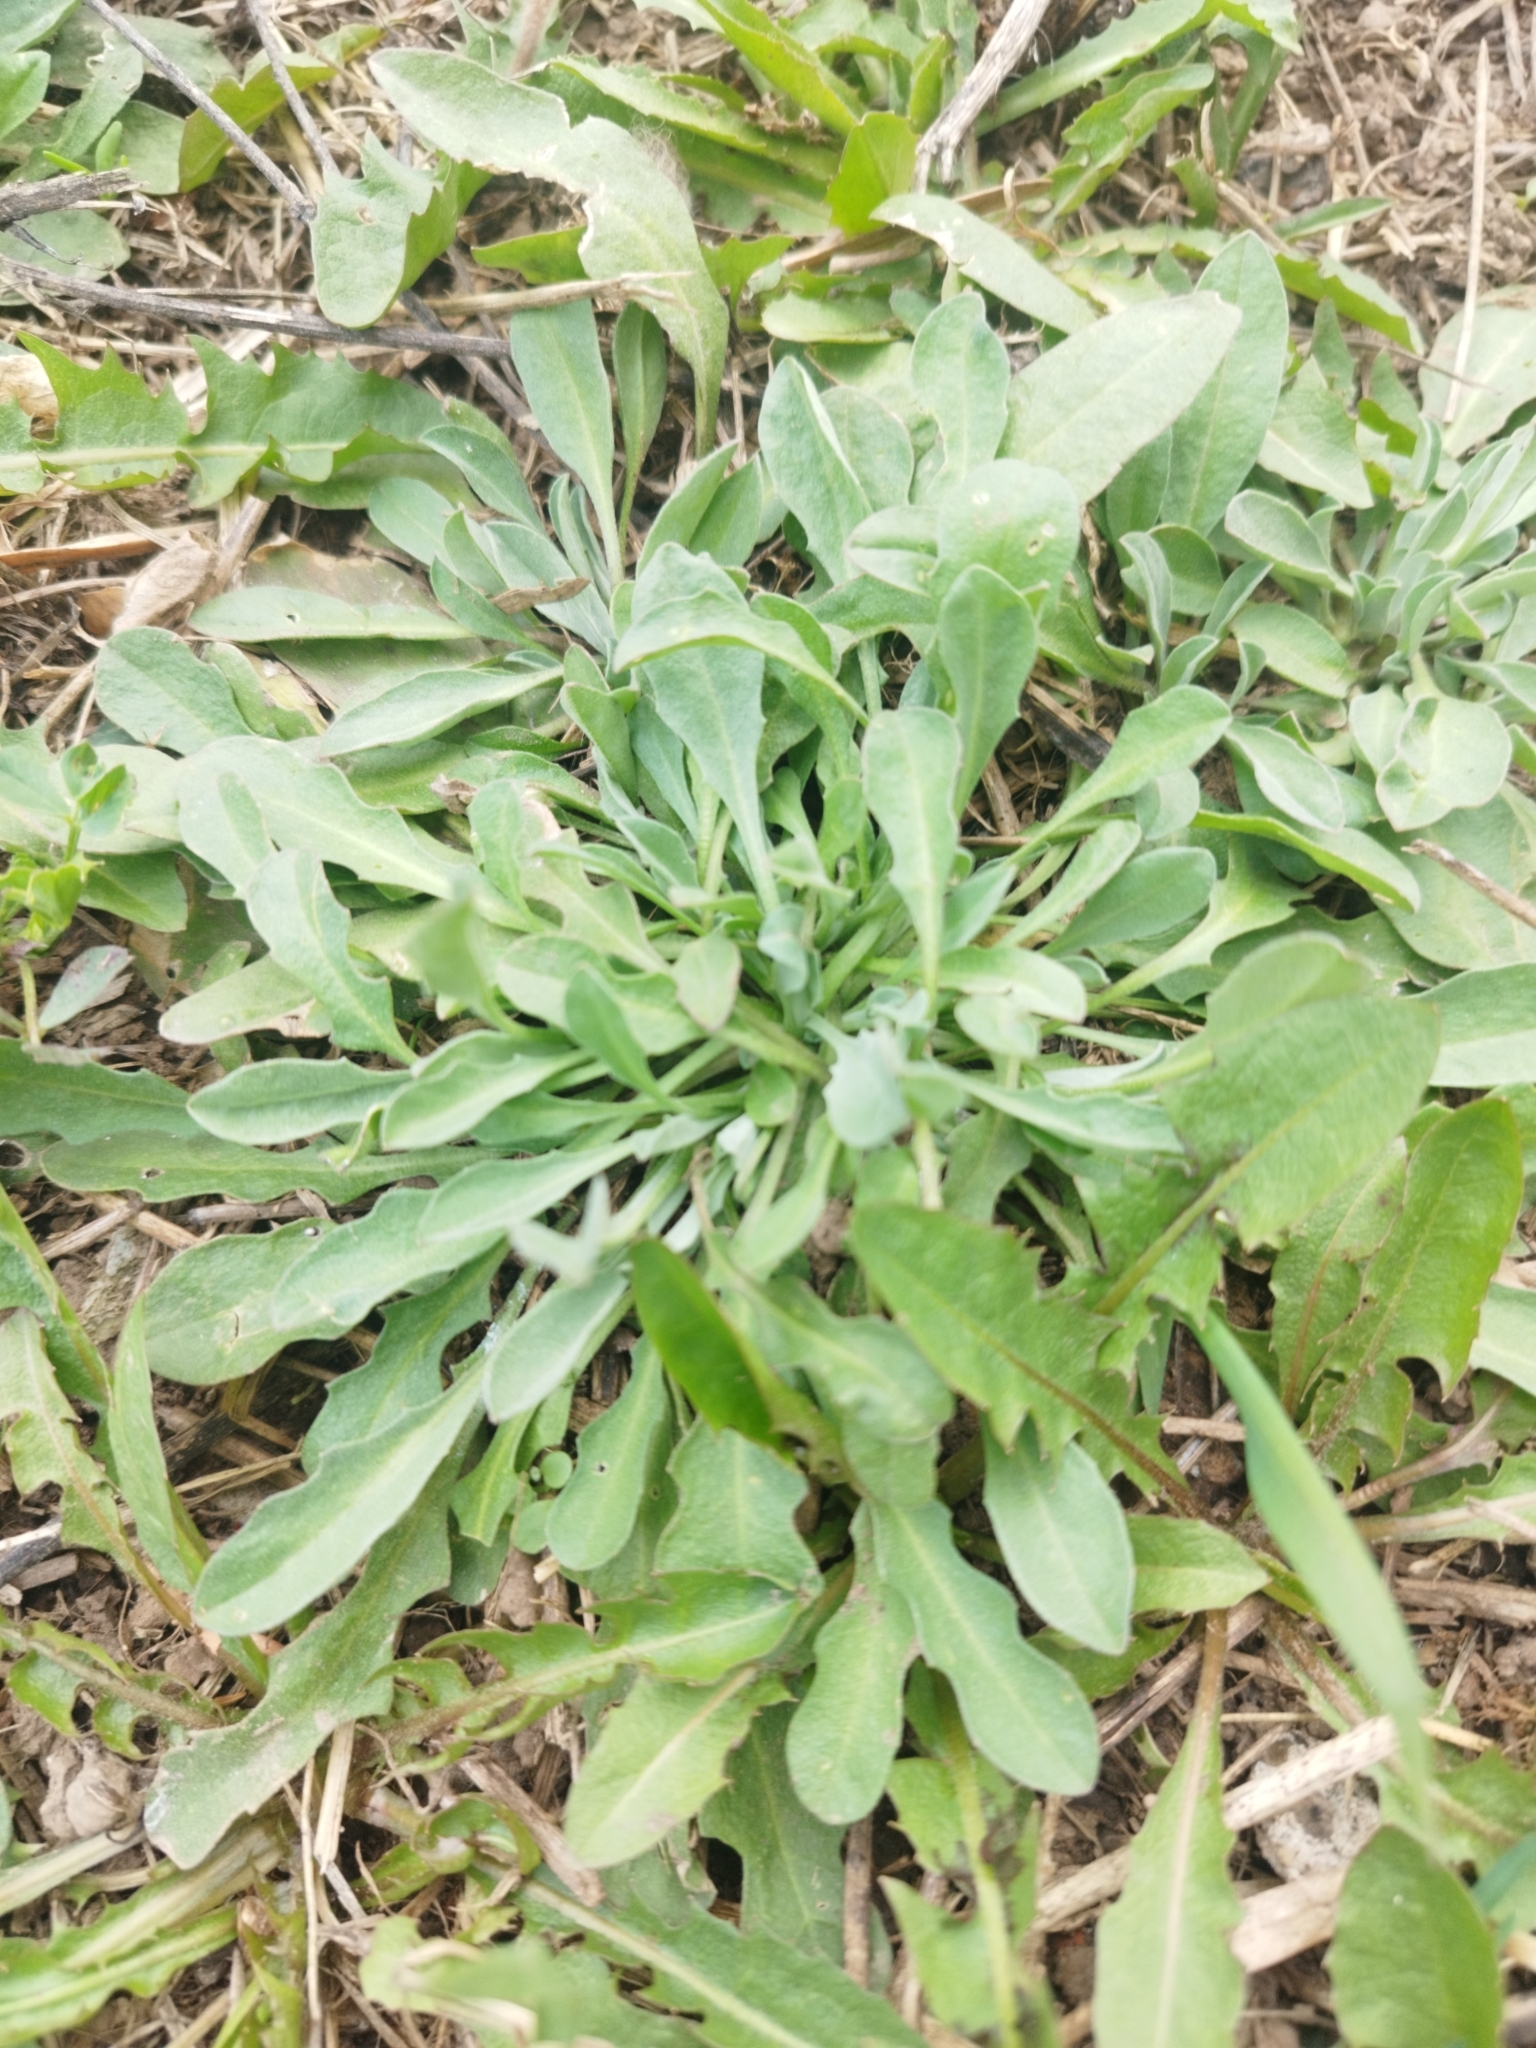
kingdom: Plantae
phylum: Tracheophyta
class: Magnoliopsida
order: Brassicales
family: Brassicaceae
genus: Berteroa
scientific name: Berteroa incana
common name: Hoary alison
